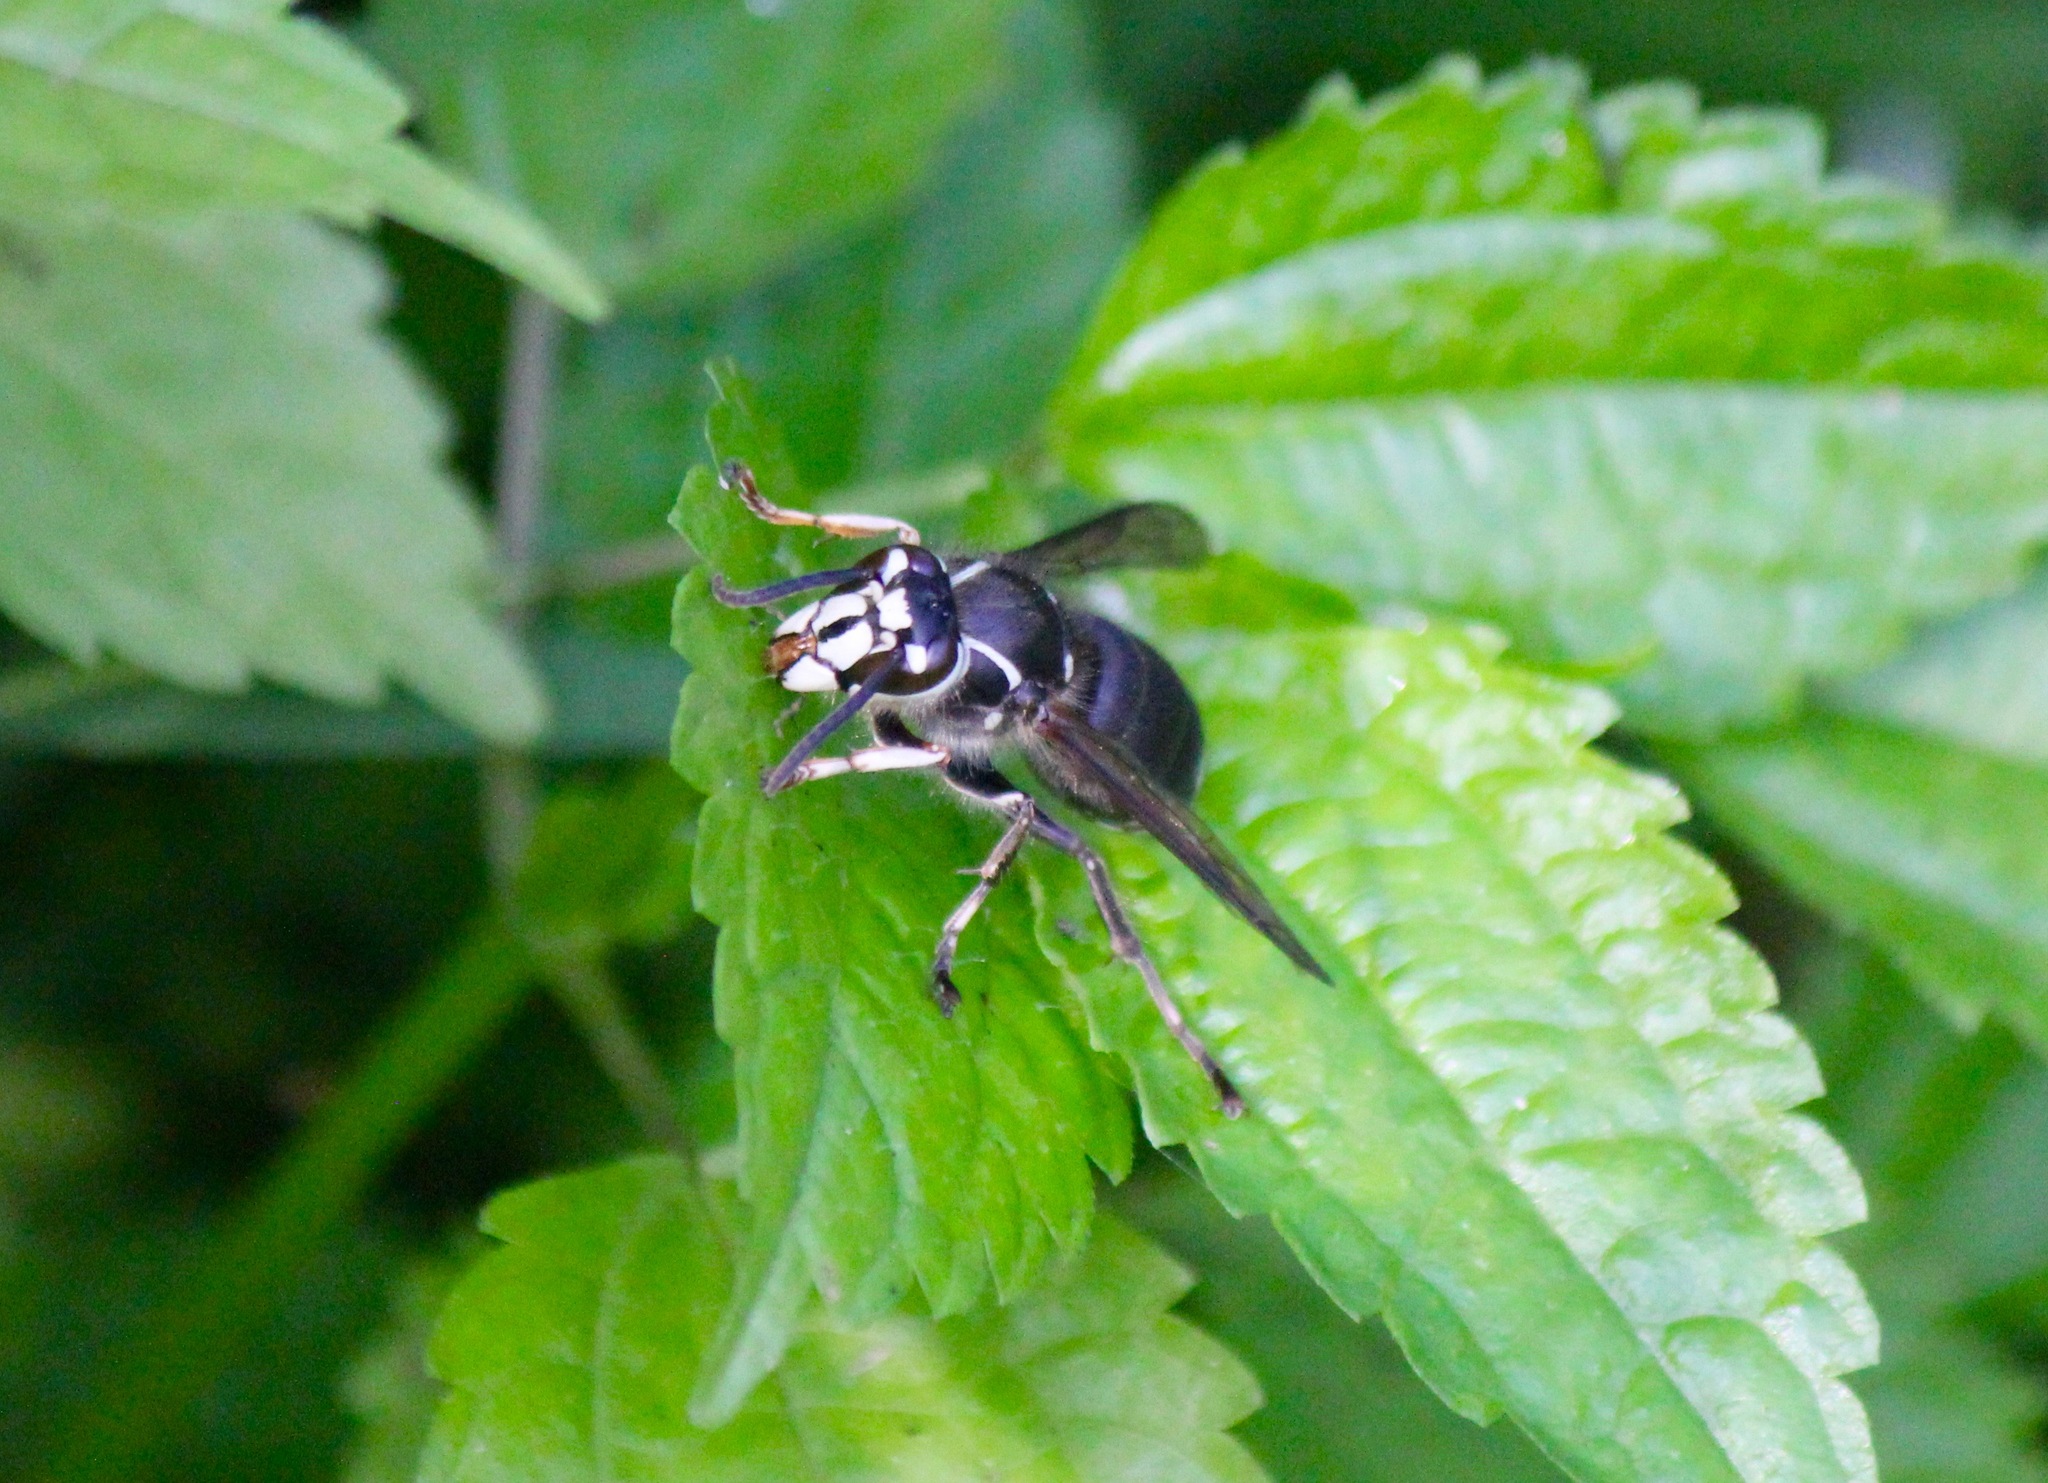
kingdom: Animalia
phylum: Arthropoda
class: Insecta
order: Hymenoptera
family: Vespidae
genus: Dolichovespula
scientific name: Dolichovespula maculata
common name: Bald-faced hornet
